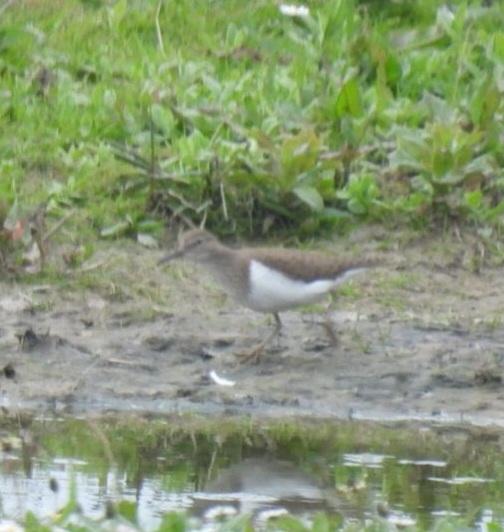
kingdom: Animalia
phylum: Chordata
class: Aves
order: Charadriiformes
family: Scolopacidae
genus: Actitis
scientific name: Actitis hypoleucos
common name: Common sandpiper
